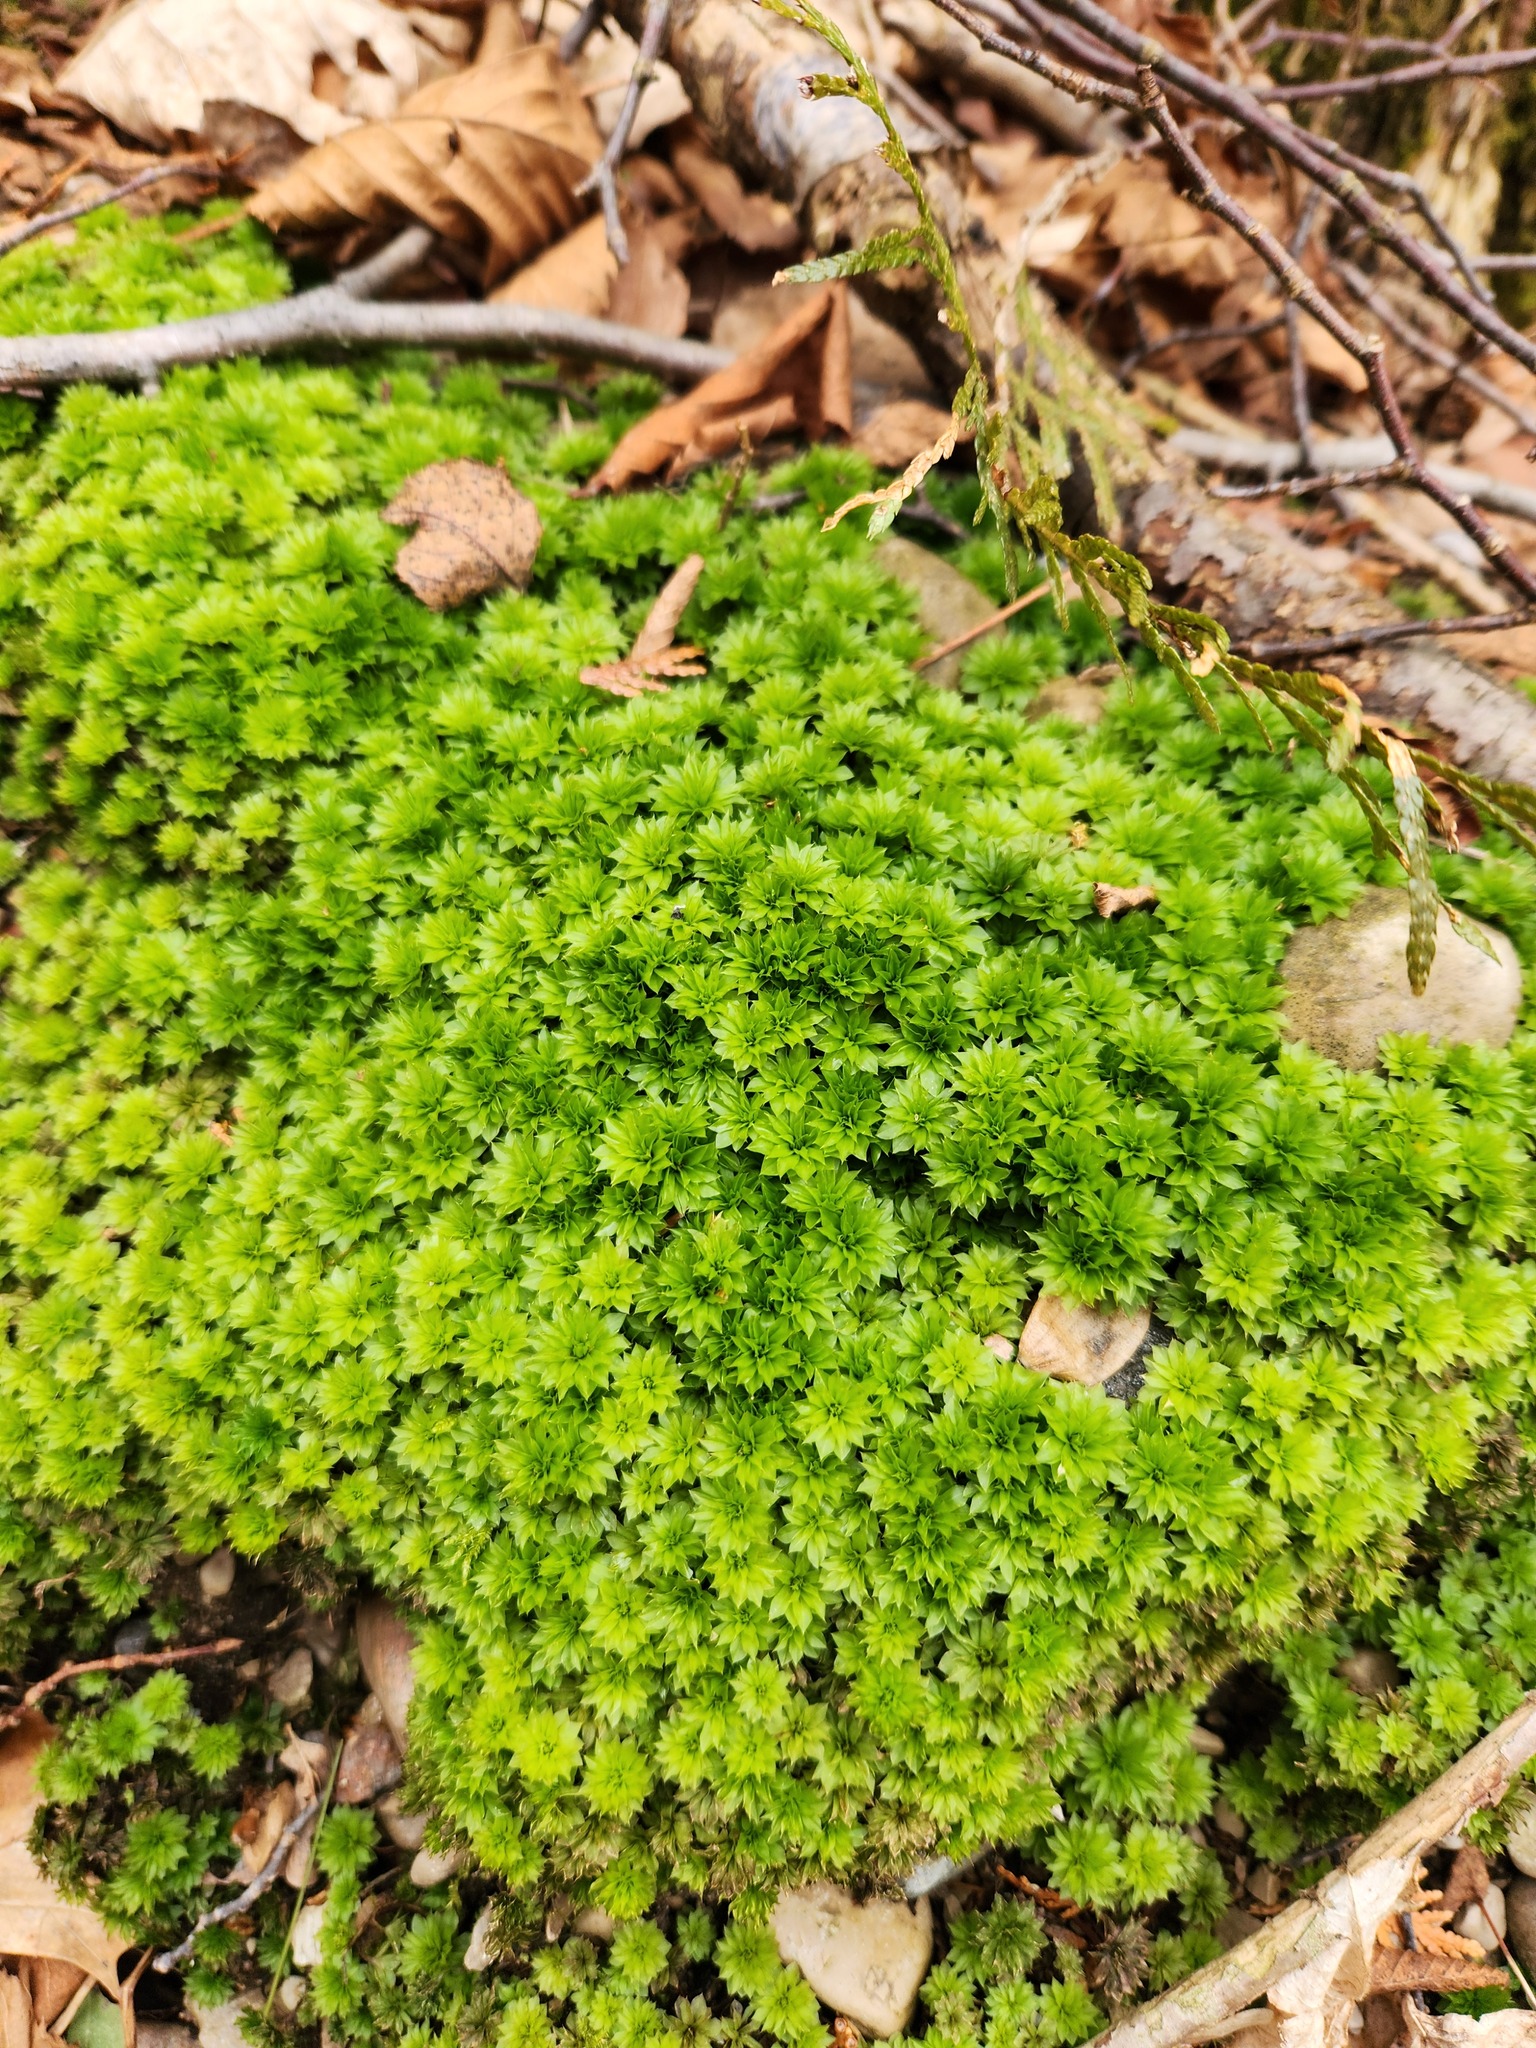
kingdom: Plantae
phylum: Bryophyta
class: Bryopsida
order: Bryales
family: Bryaceae
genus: Rhodobryum
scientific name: Rhodobryum ontariense
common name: Ontario rhodobryum moss
